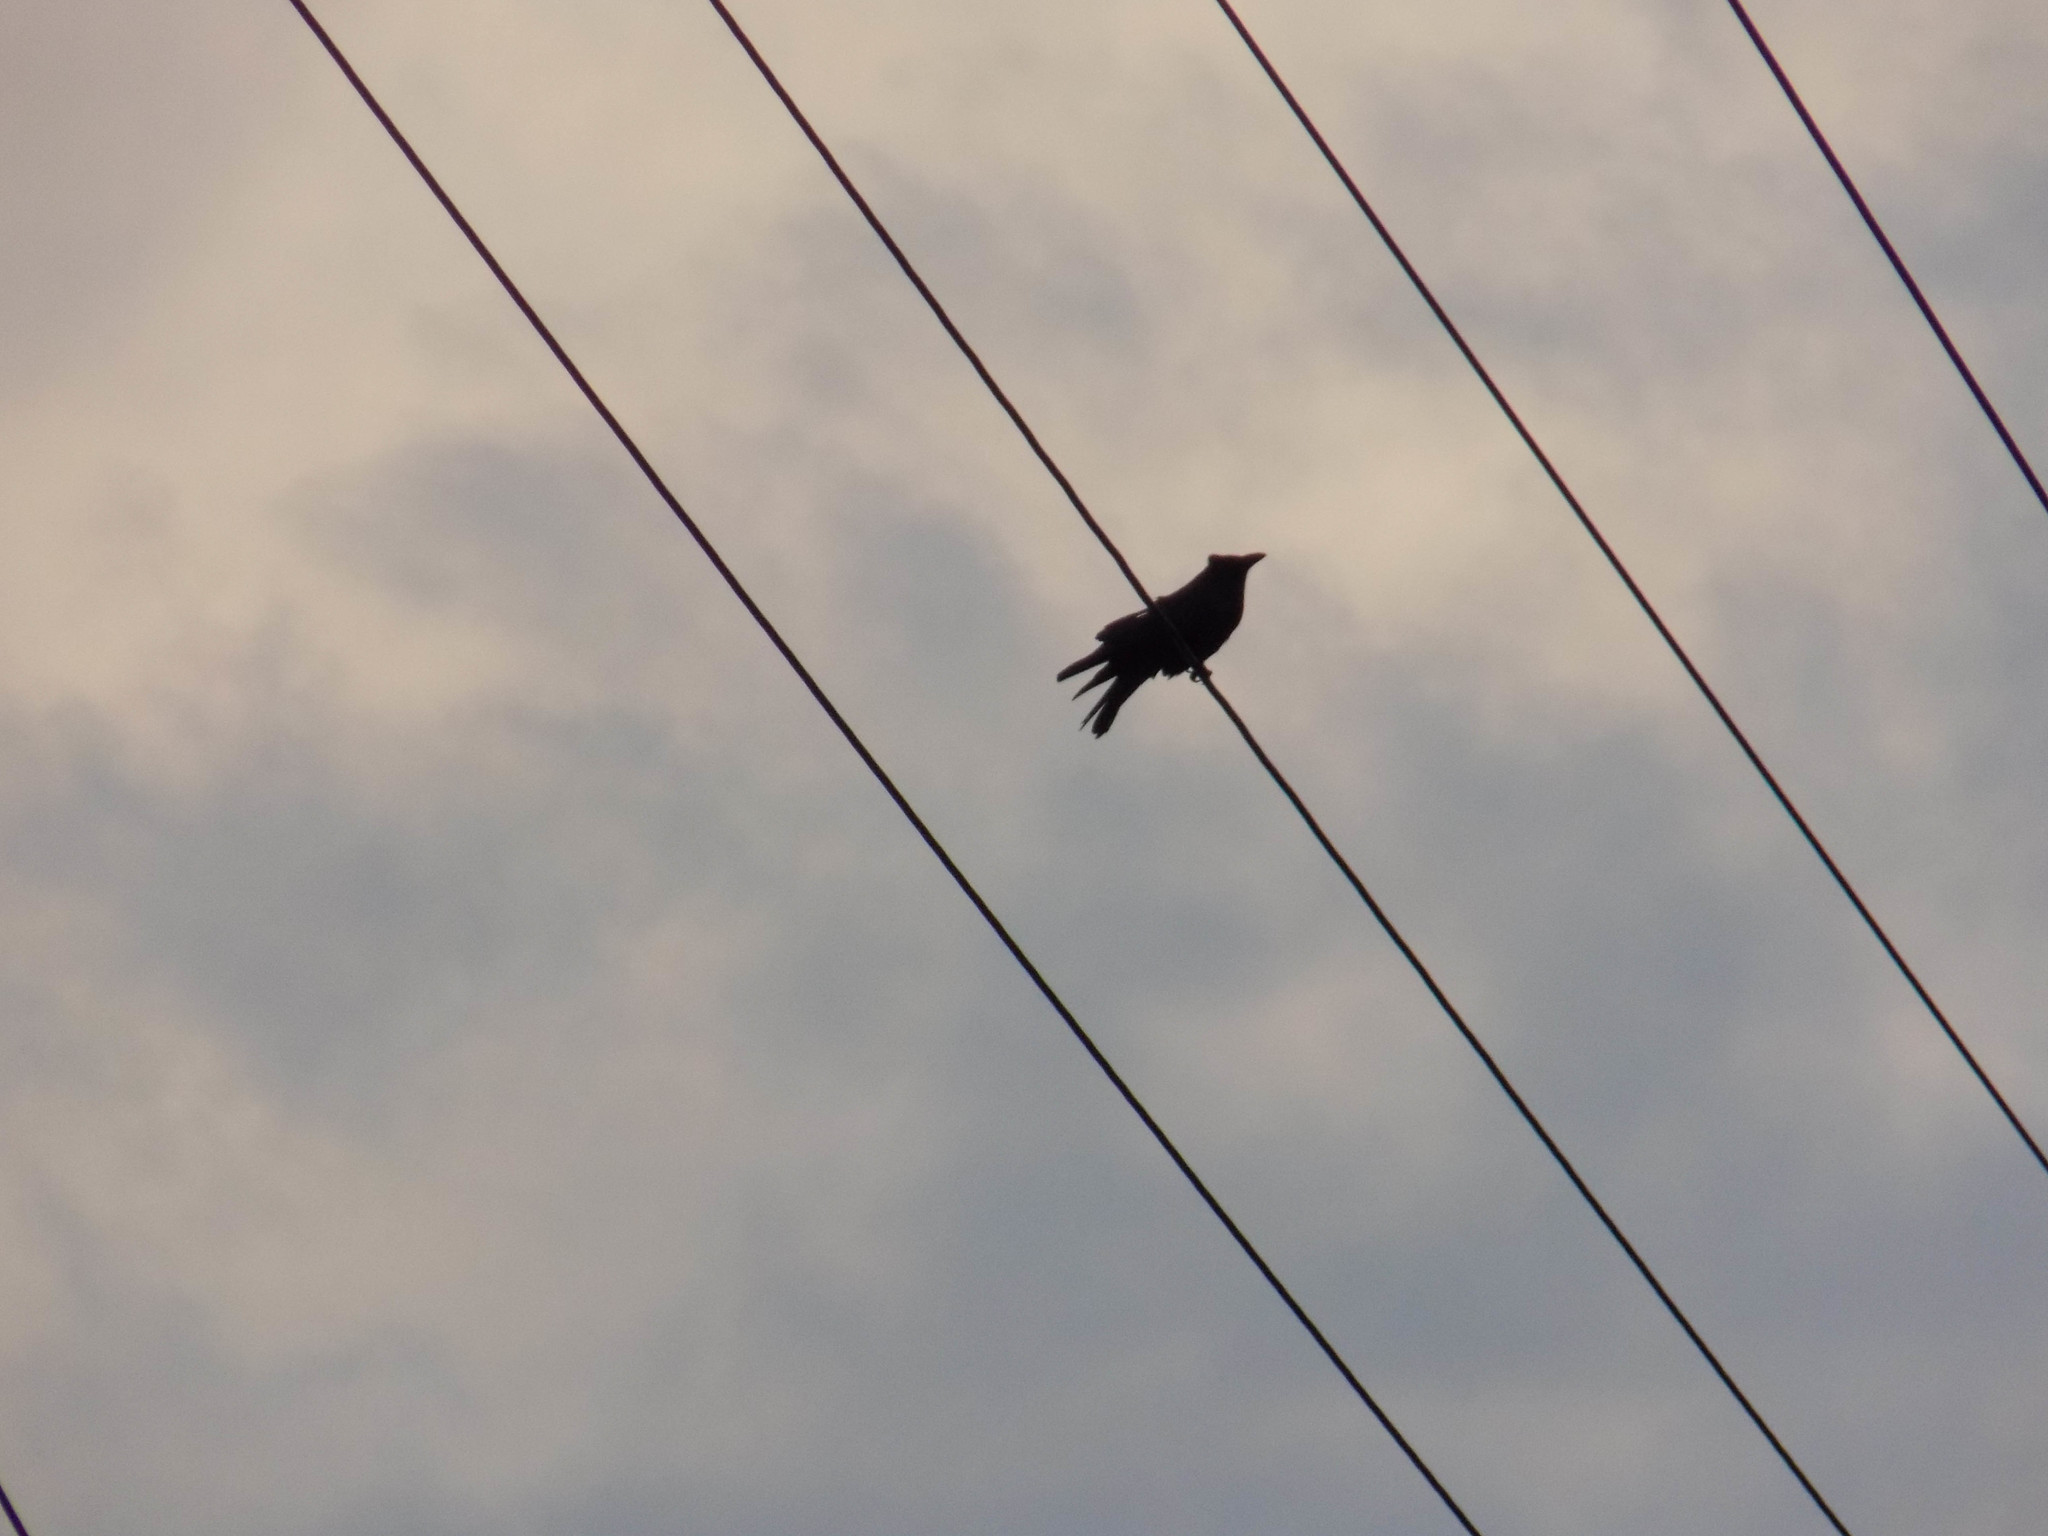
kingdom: Animalia
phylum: Chordata
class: Aves
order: Passeriformes
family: Corvidae
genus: Corvus
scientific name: Corvus corone
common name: Carrion crow
